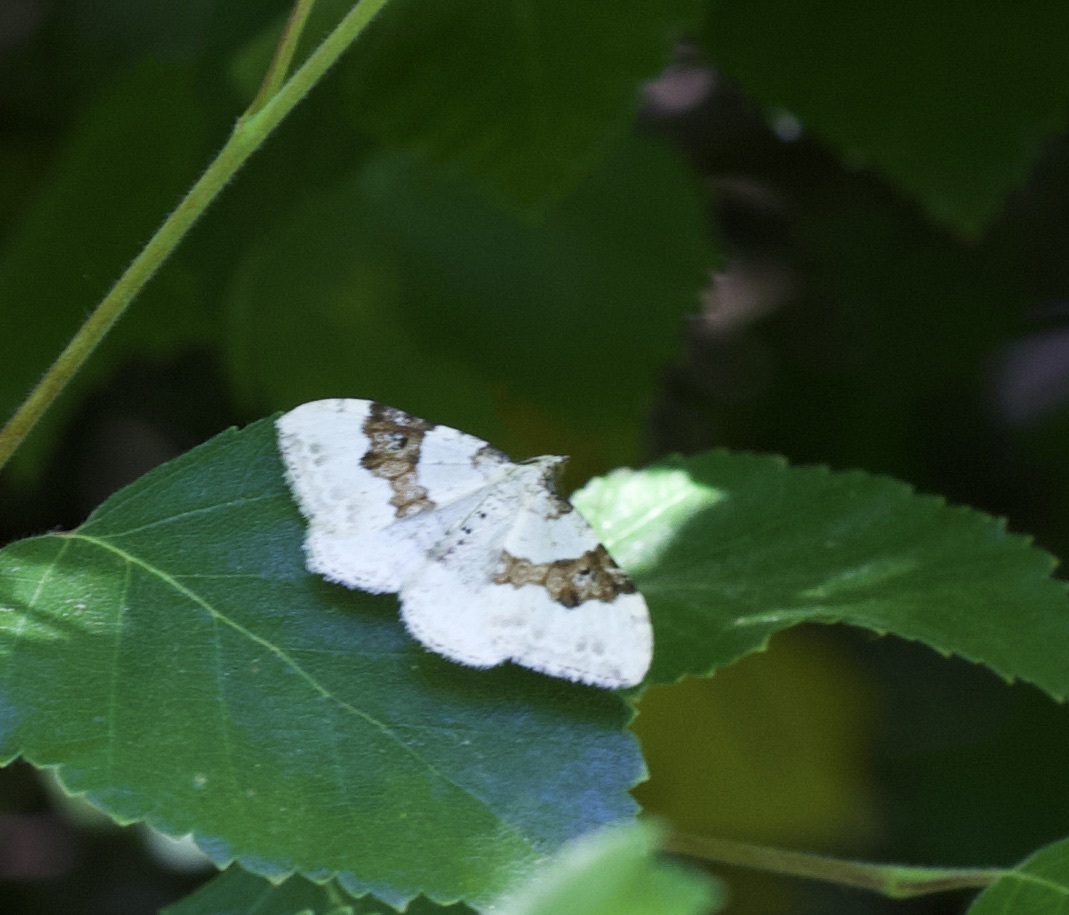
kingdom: Animalia
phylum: Arthropoda
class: Insecta
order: Lepidoptera
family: Geometridae
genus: Xanthorhoe
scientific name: Xanthorhoe montanata
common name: Silver-ground carpet
